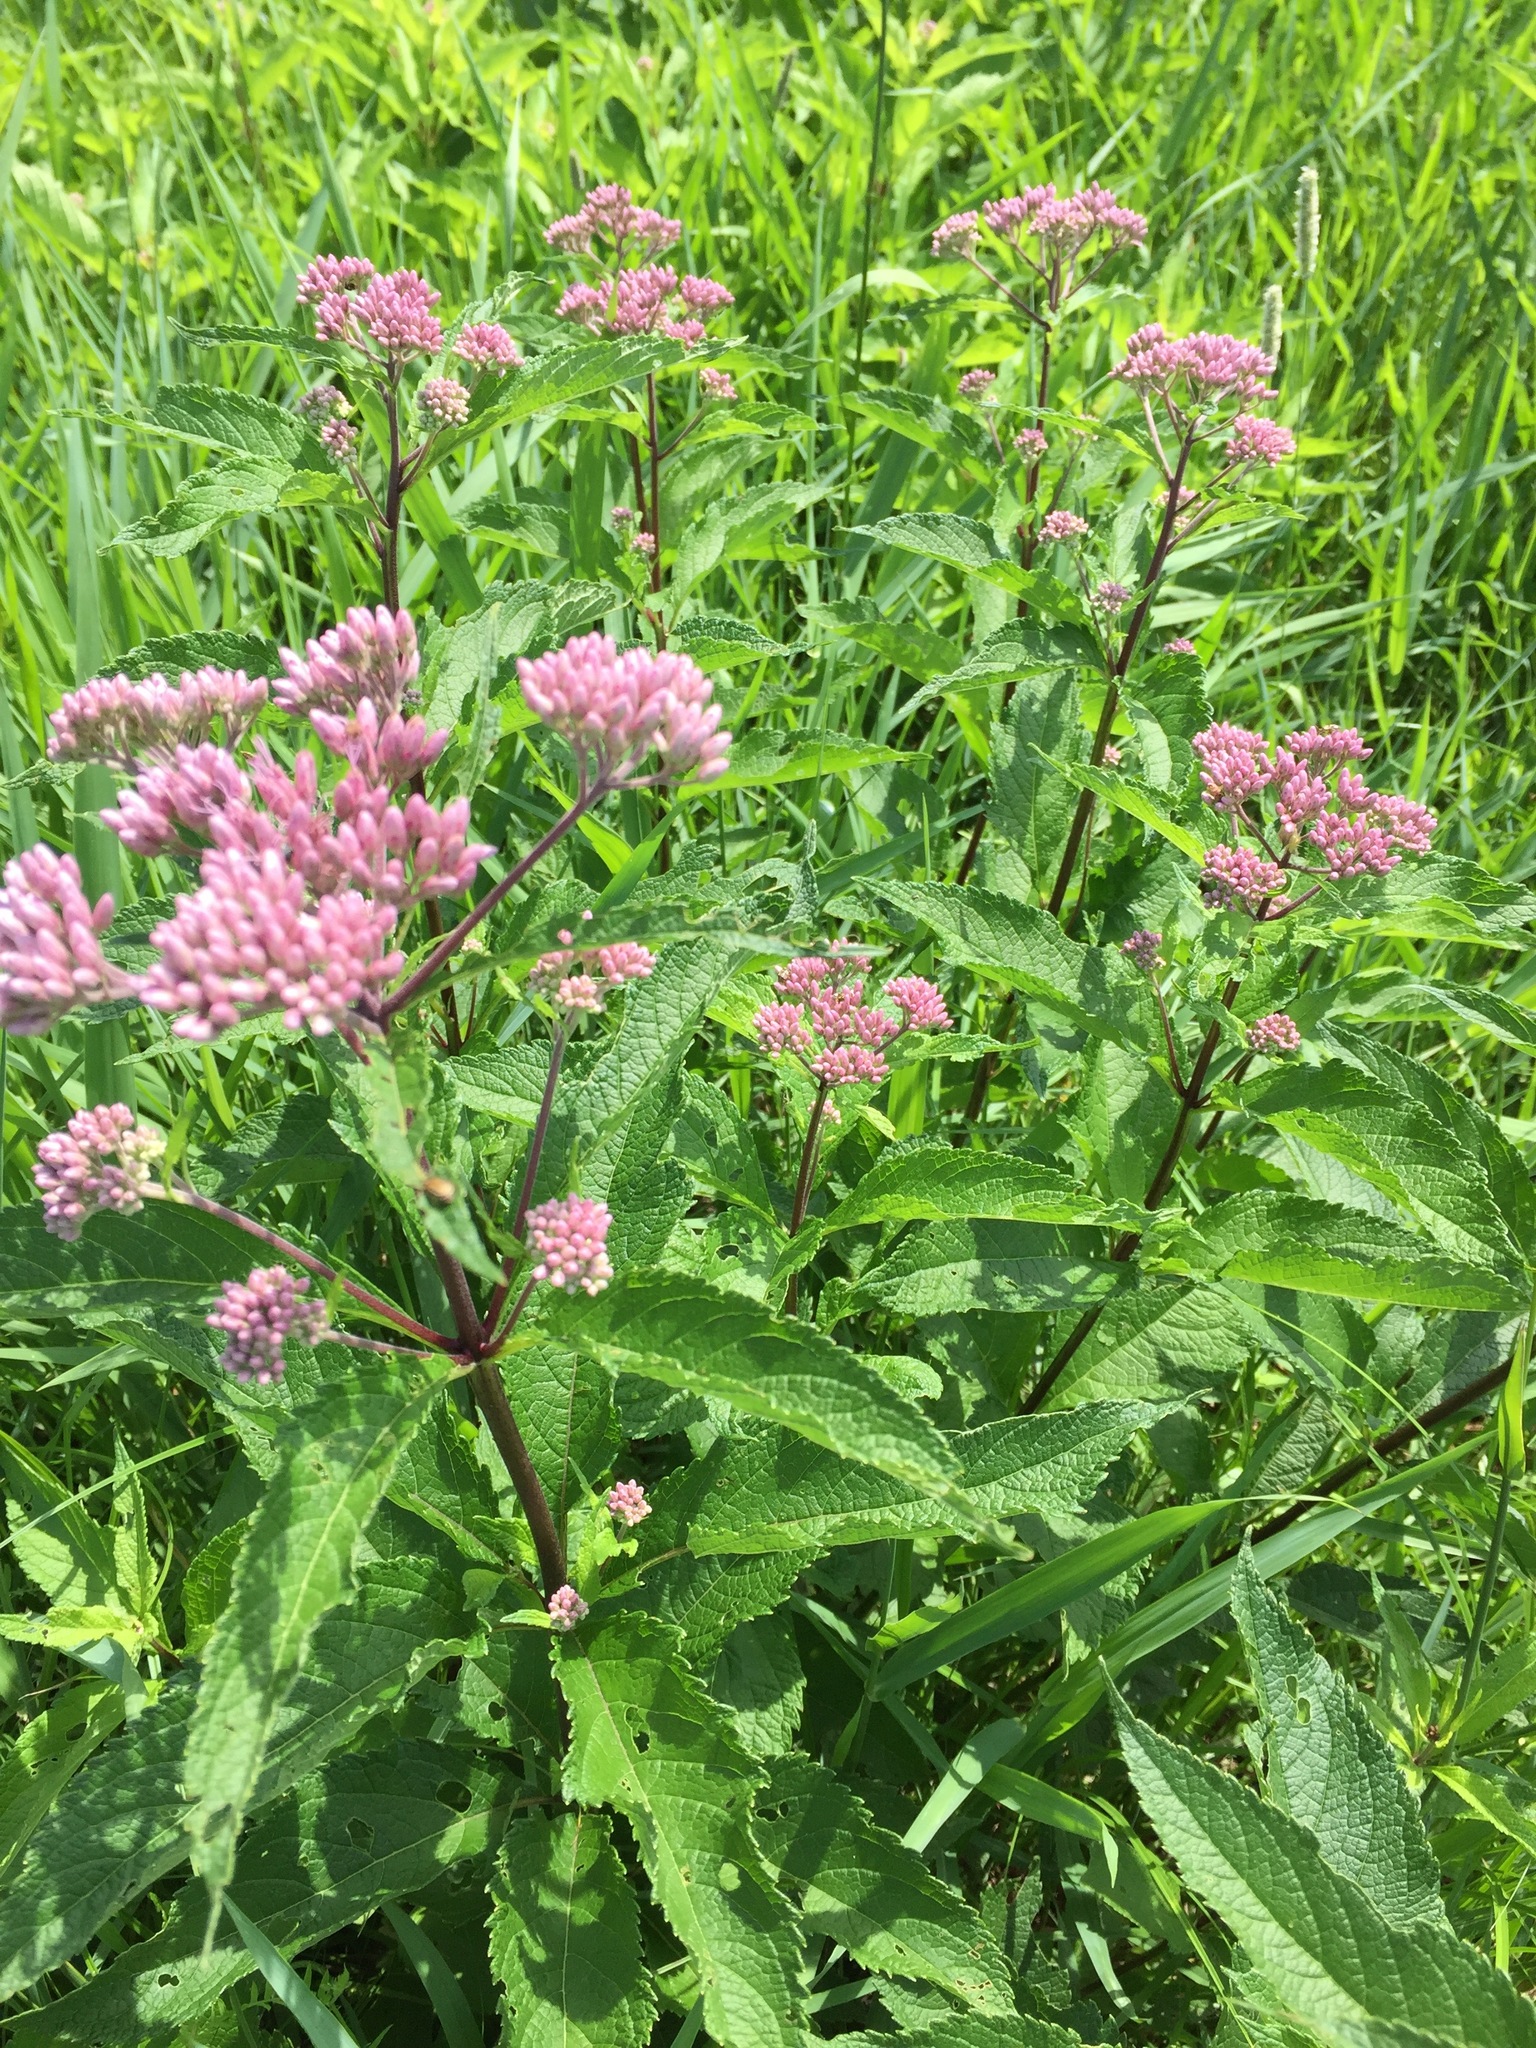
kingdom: Plantae
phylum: Tracheophyta
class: Magnoliopsida
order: Asterales
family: Asteraceae
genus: Eutrochium
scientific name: Eutrochium maculatum
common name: Spotted joe pye weed
